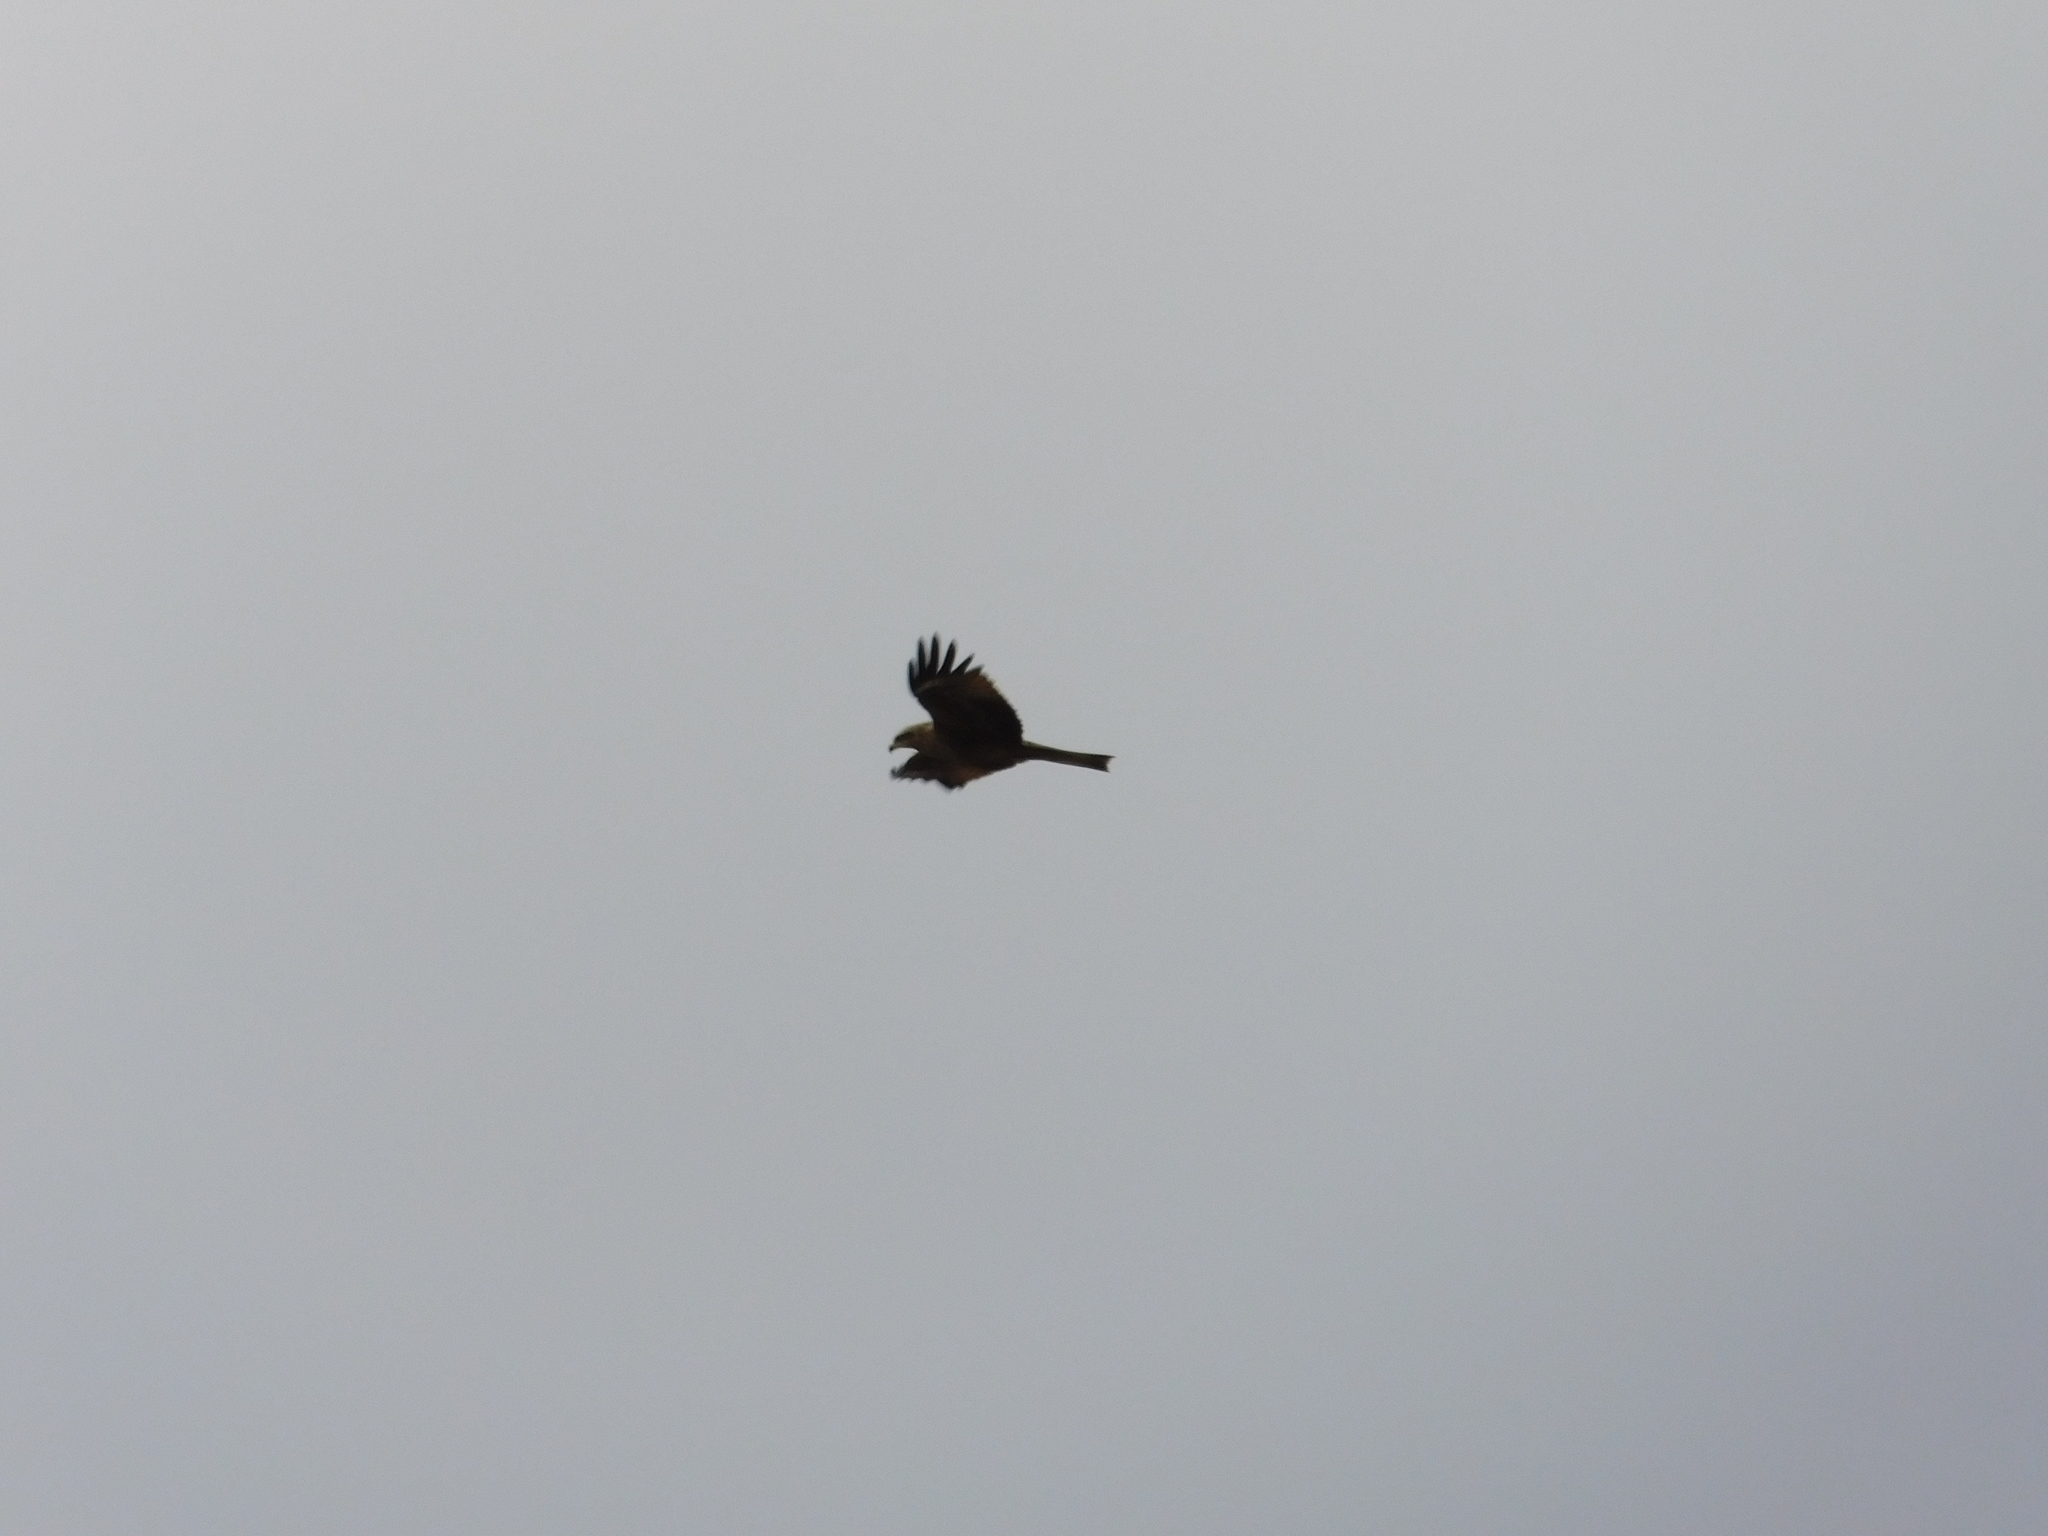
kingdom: Animalia
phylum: Chordata
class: Aves
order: Accipitriformes
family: Accipitridae
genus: Milvus
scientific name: Milvus migrans
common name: Black kite
